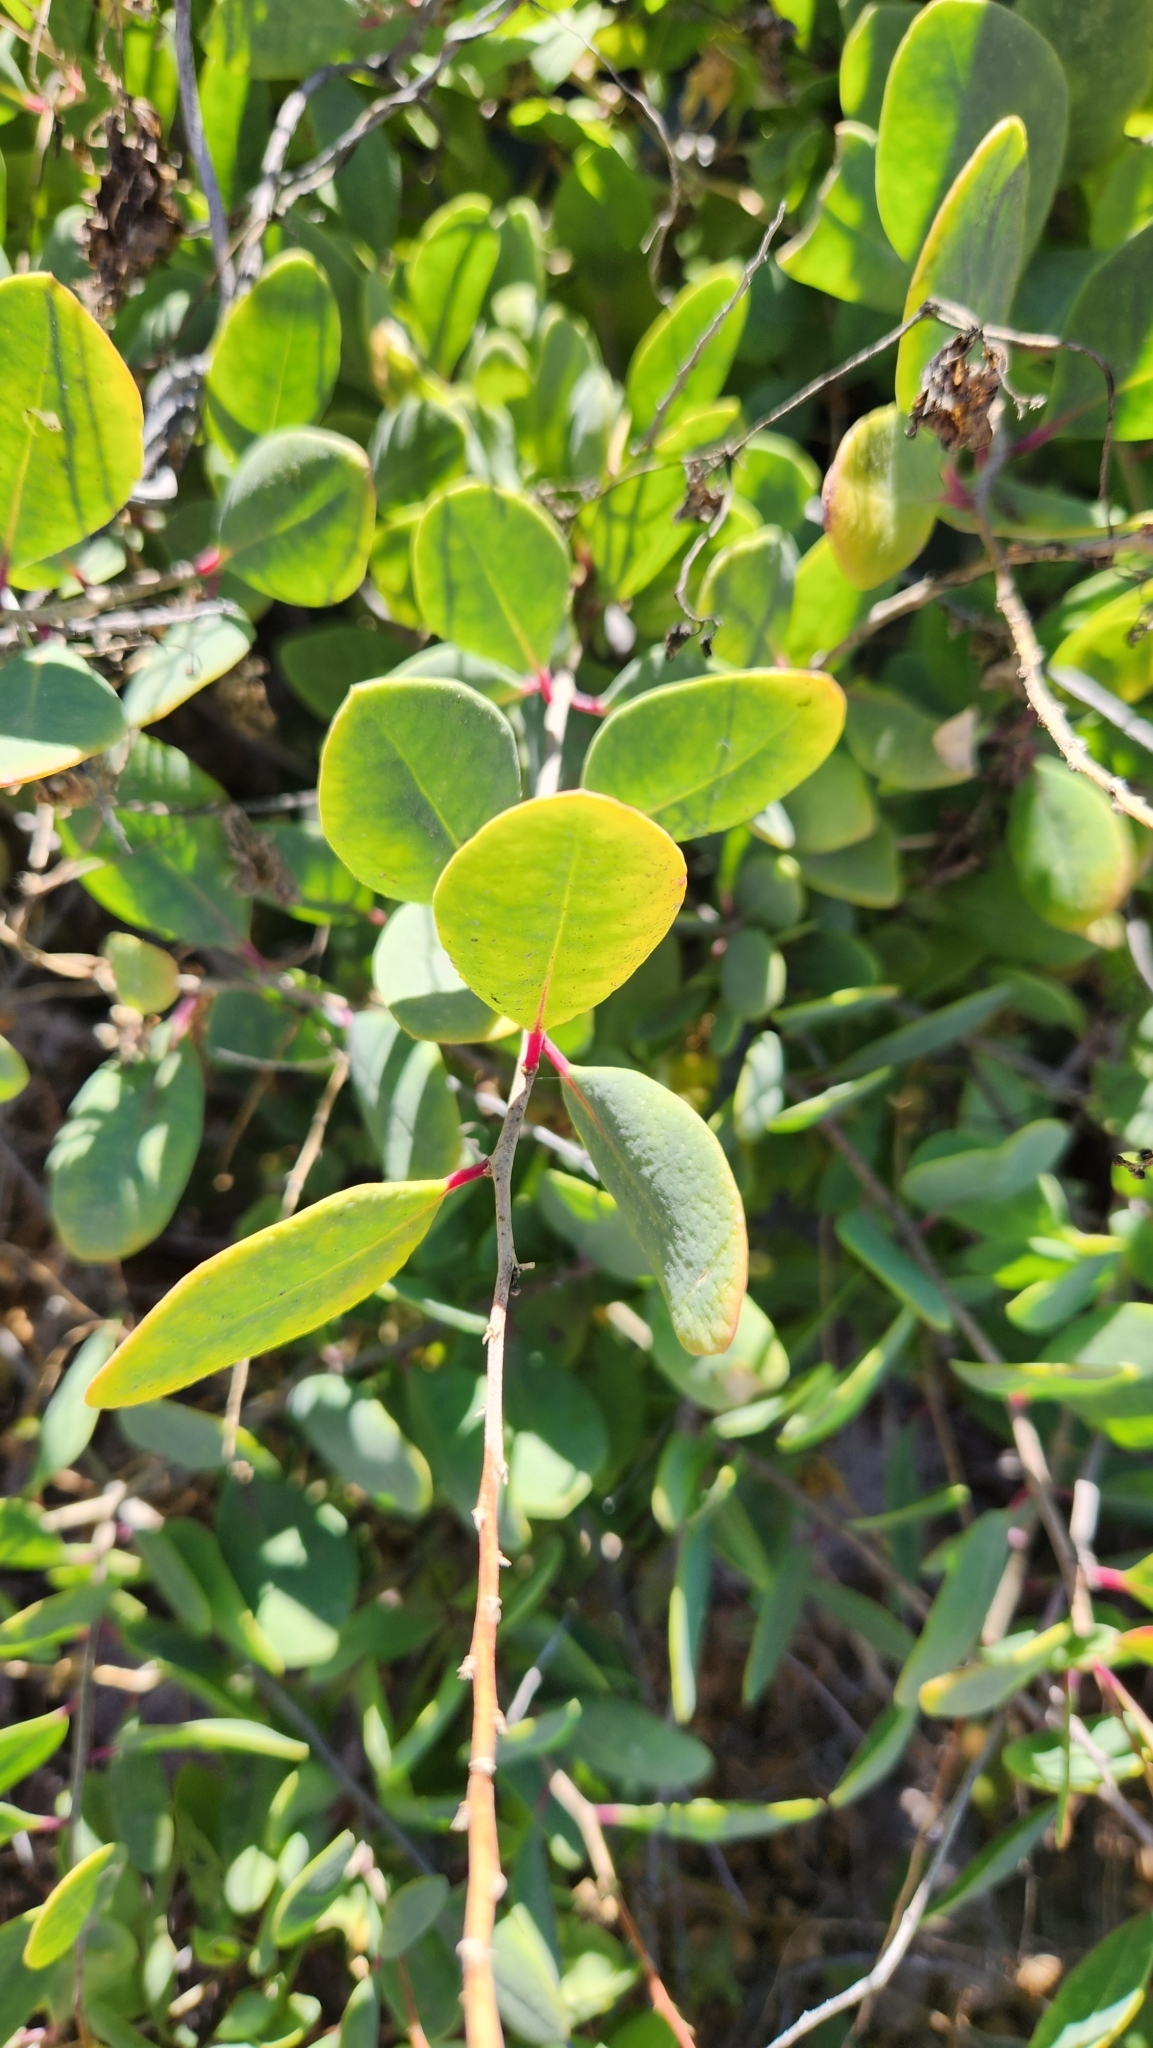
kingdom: Plantae
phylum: Tracheophyta
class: Magnoliopsida
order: Caryophyllales
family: Stegnospermataceae
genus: Stegnosperma
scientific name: Stegnosperma halimifolium
